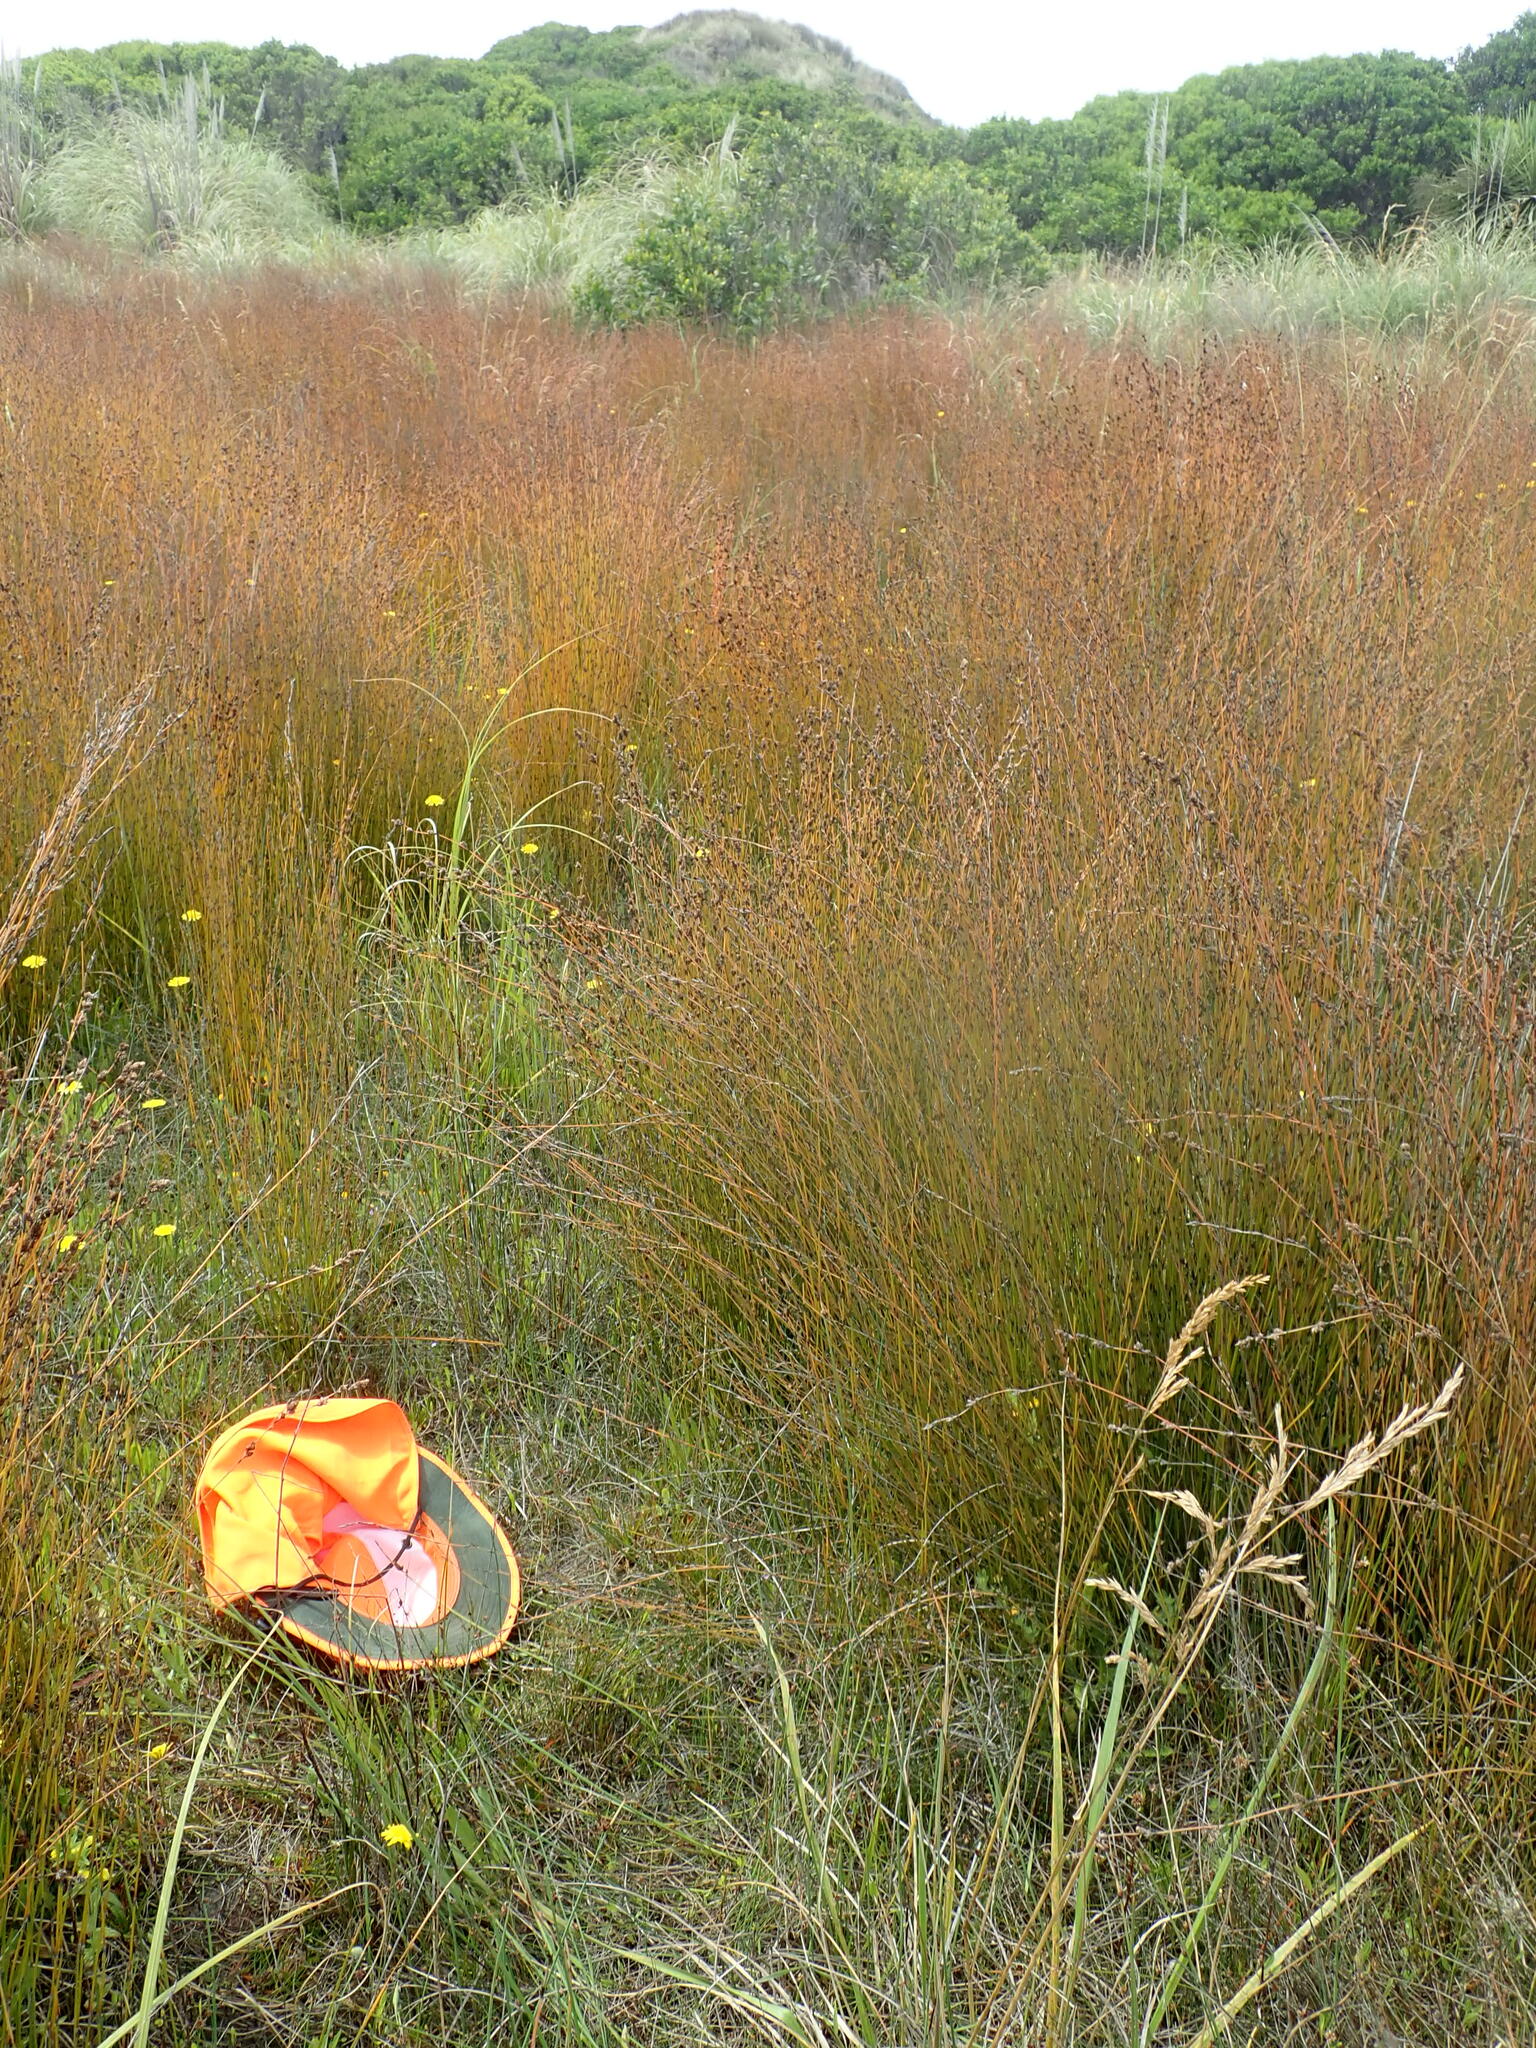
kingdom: Plantae
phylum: Tracheophyta
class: Magnoliopsida
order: Asterales
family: Goodeniaceae
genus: Goodenia
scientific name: Goodenia heenanii
